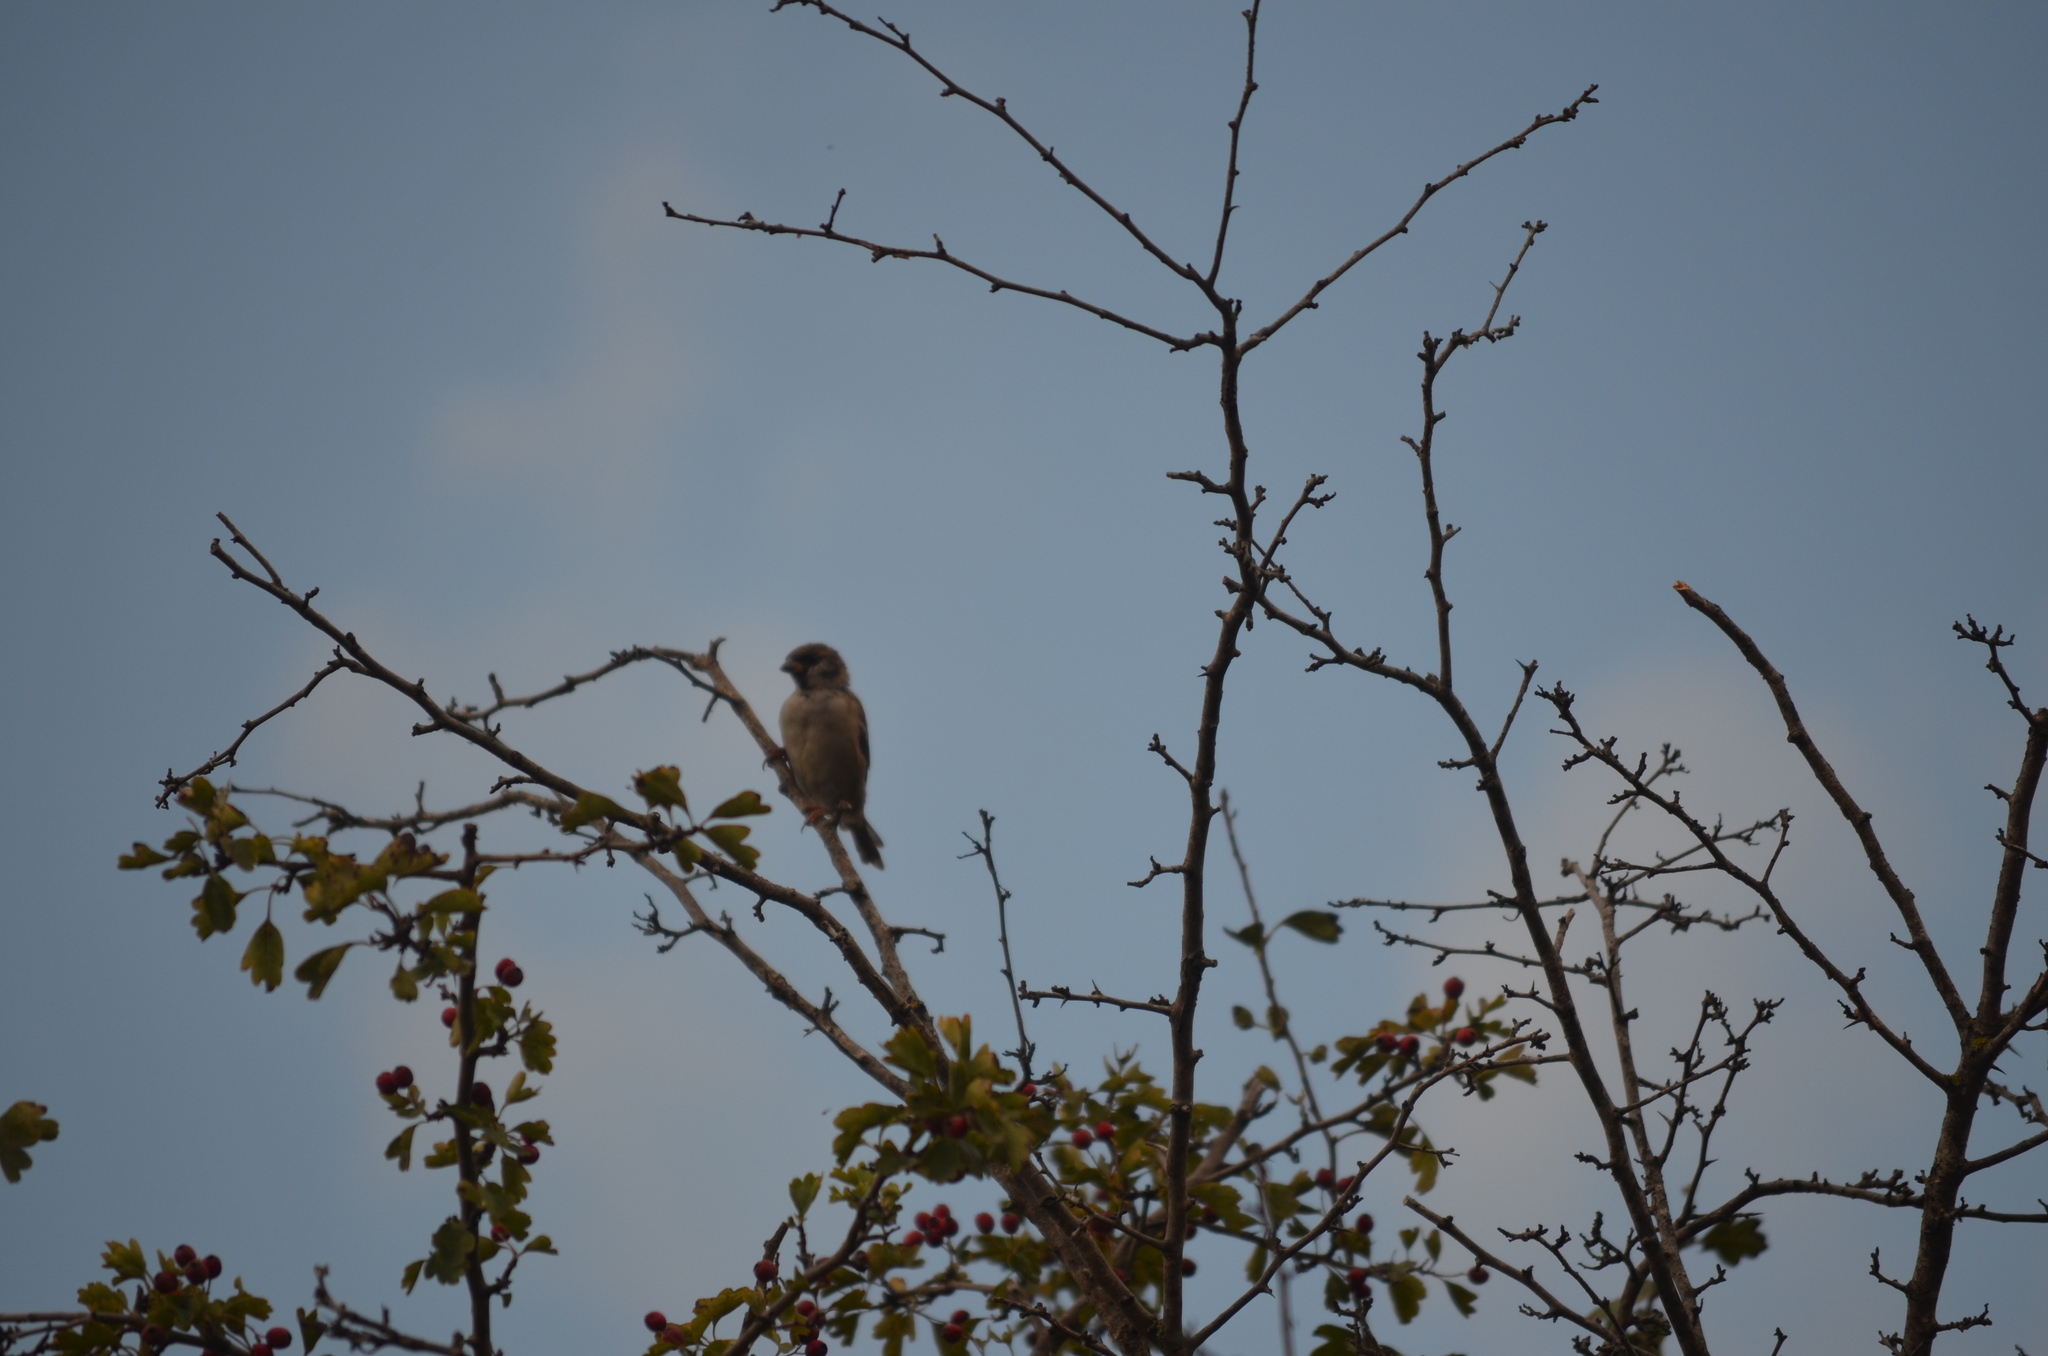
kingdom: Animalia
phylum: Chordata
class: Aves
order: Passeriformes
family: Passeridae
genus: Passer
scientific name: Passer montanus
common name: Eurasian tree sparrow
